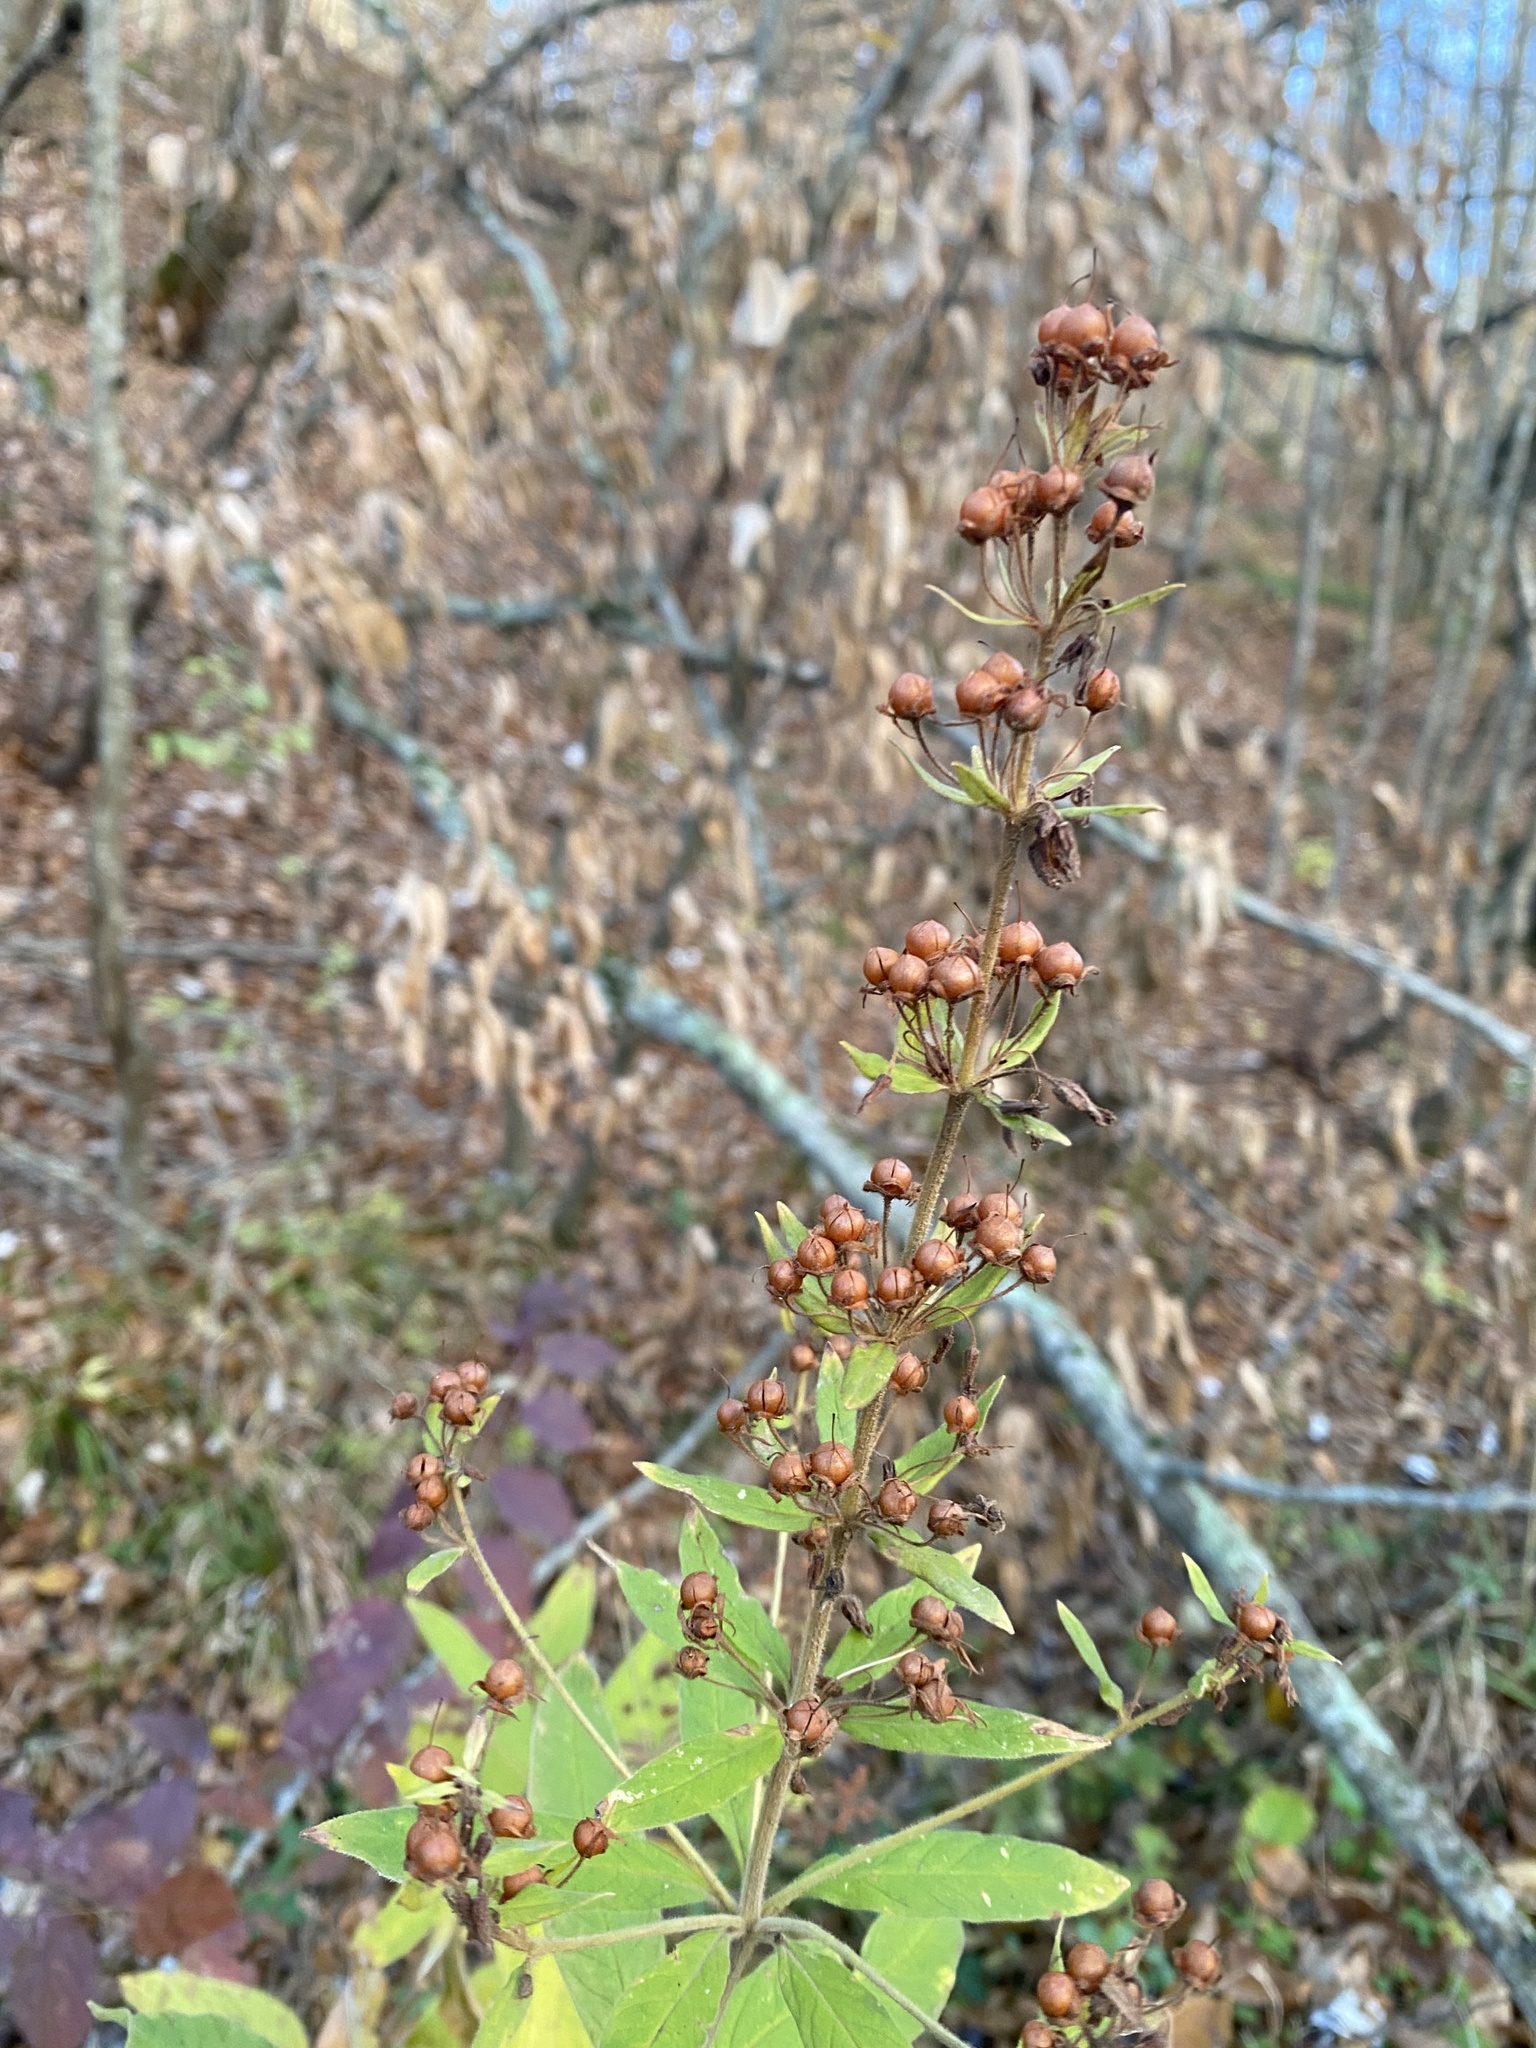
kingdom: Plantae
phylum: Tracheophyta
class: Magnoliopsida
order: Ericales
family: Primulaceae
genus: Lysimachia
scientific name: Lysimachia verticillaris
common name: Yellow loosestrife
